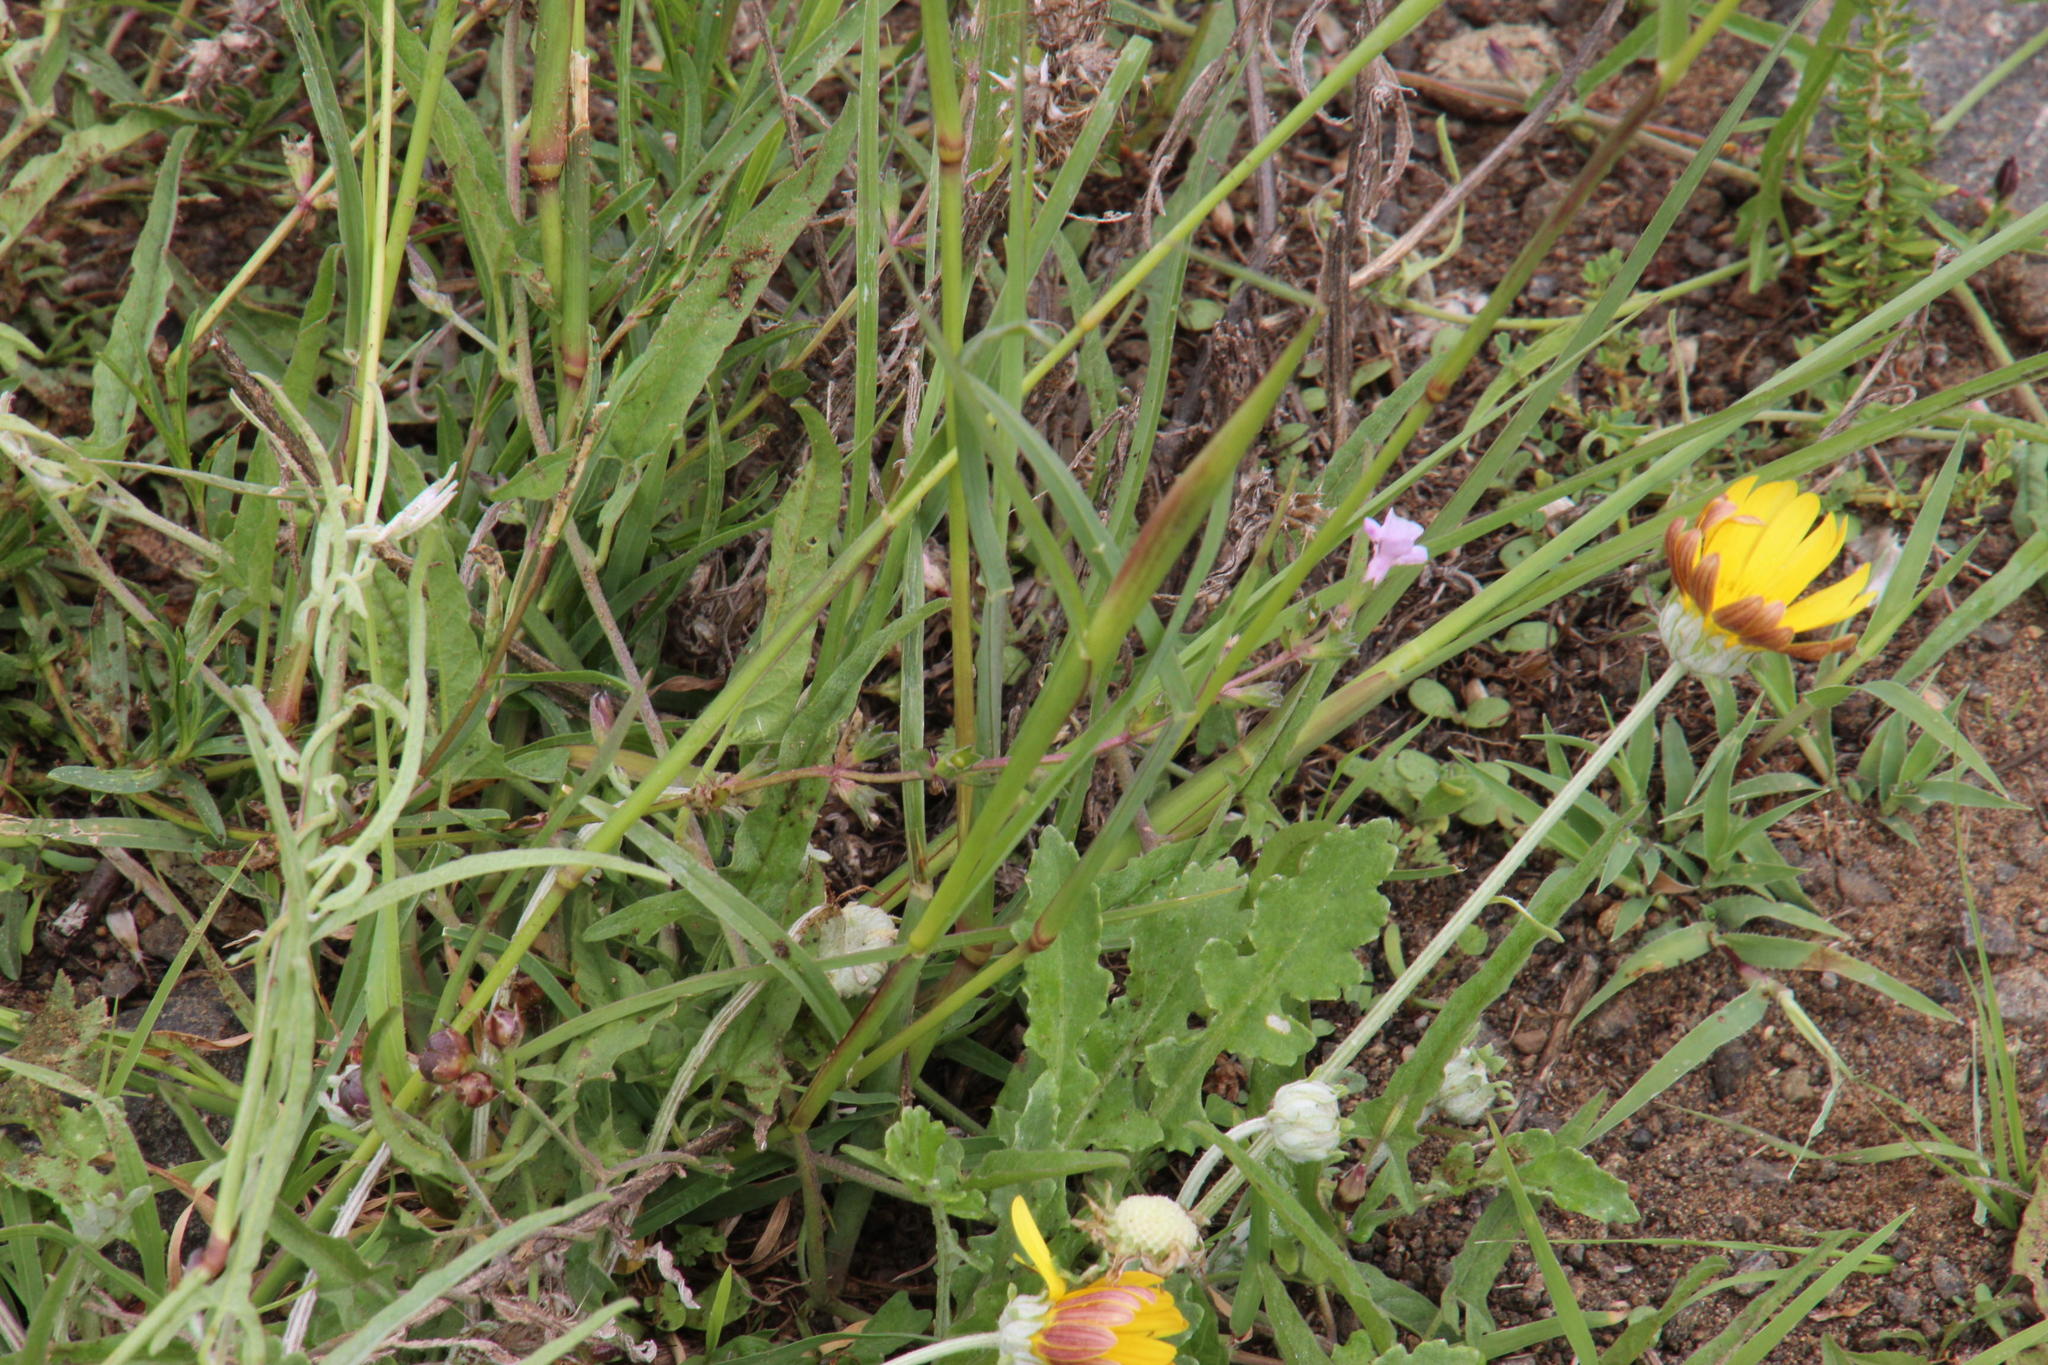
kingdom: Plantae
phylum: Tracheophyta
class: Liliopsida
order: Poales
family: Poaceae
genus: Chloris
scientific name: Chloris virgata
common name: Feathery rhodes-grass
